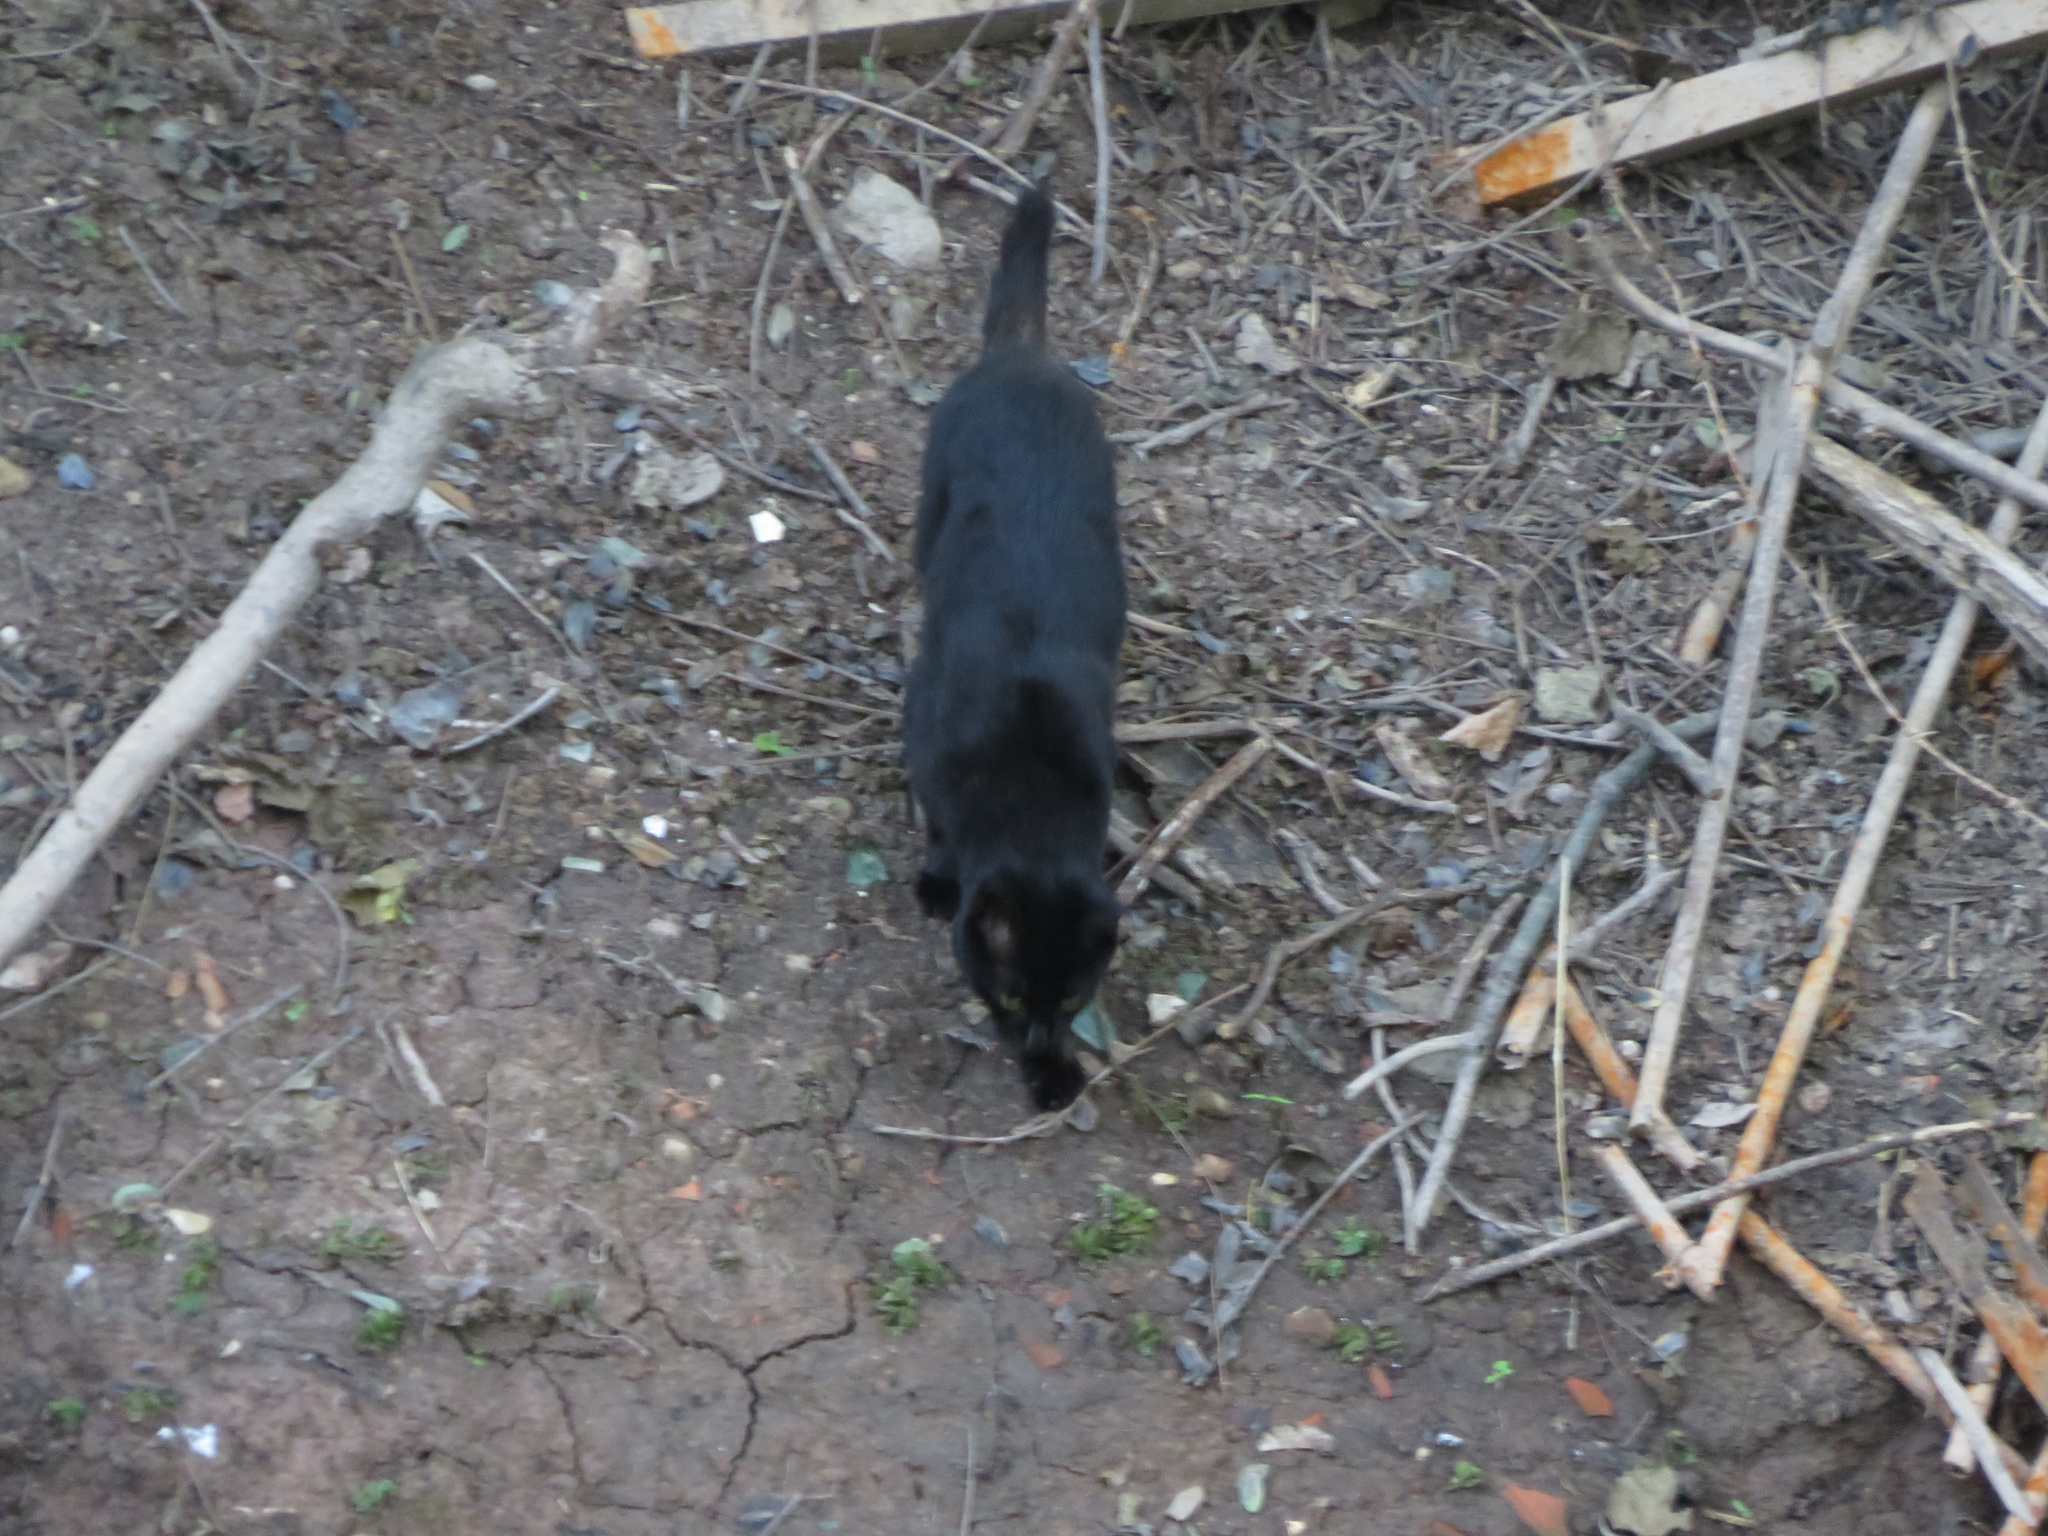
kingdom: Animalia
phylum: Chordata
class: Mammalia
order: Carnivora
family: Felidae
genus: Felis
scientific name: Felis catus
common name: Domestic cat
